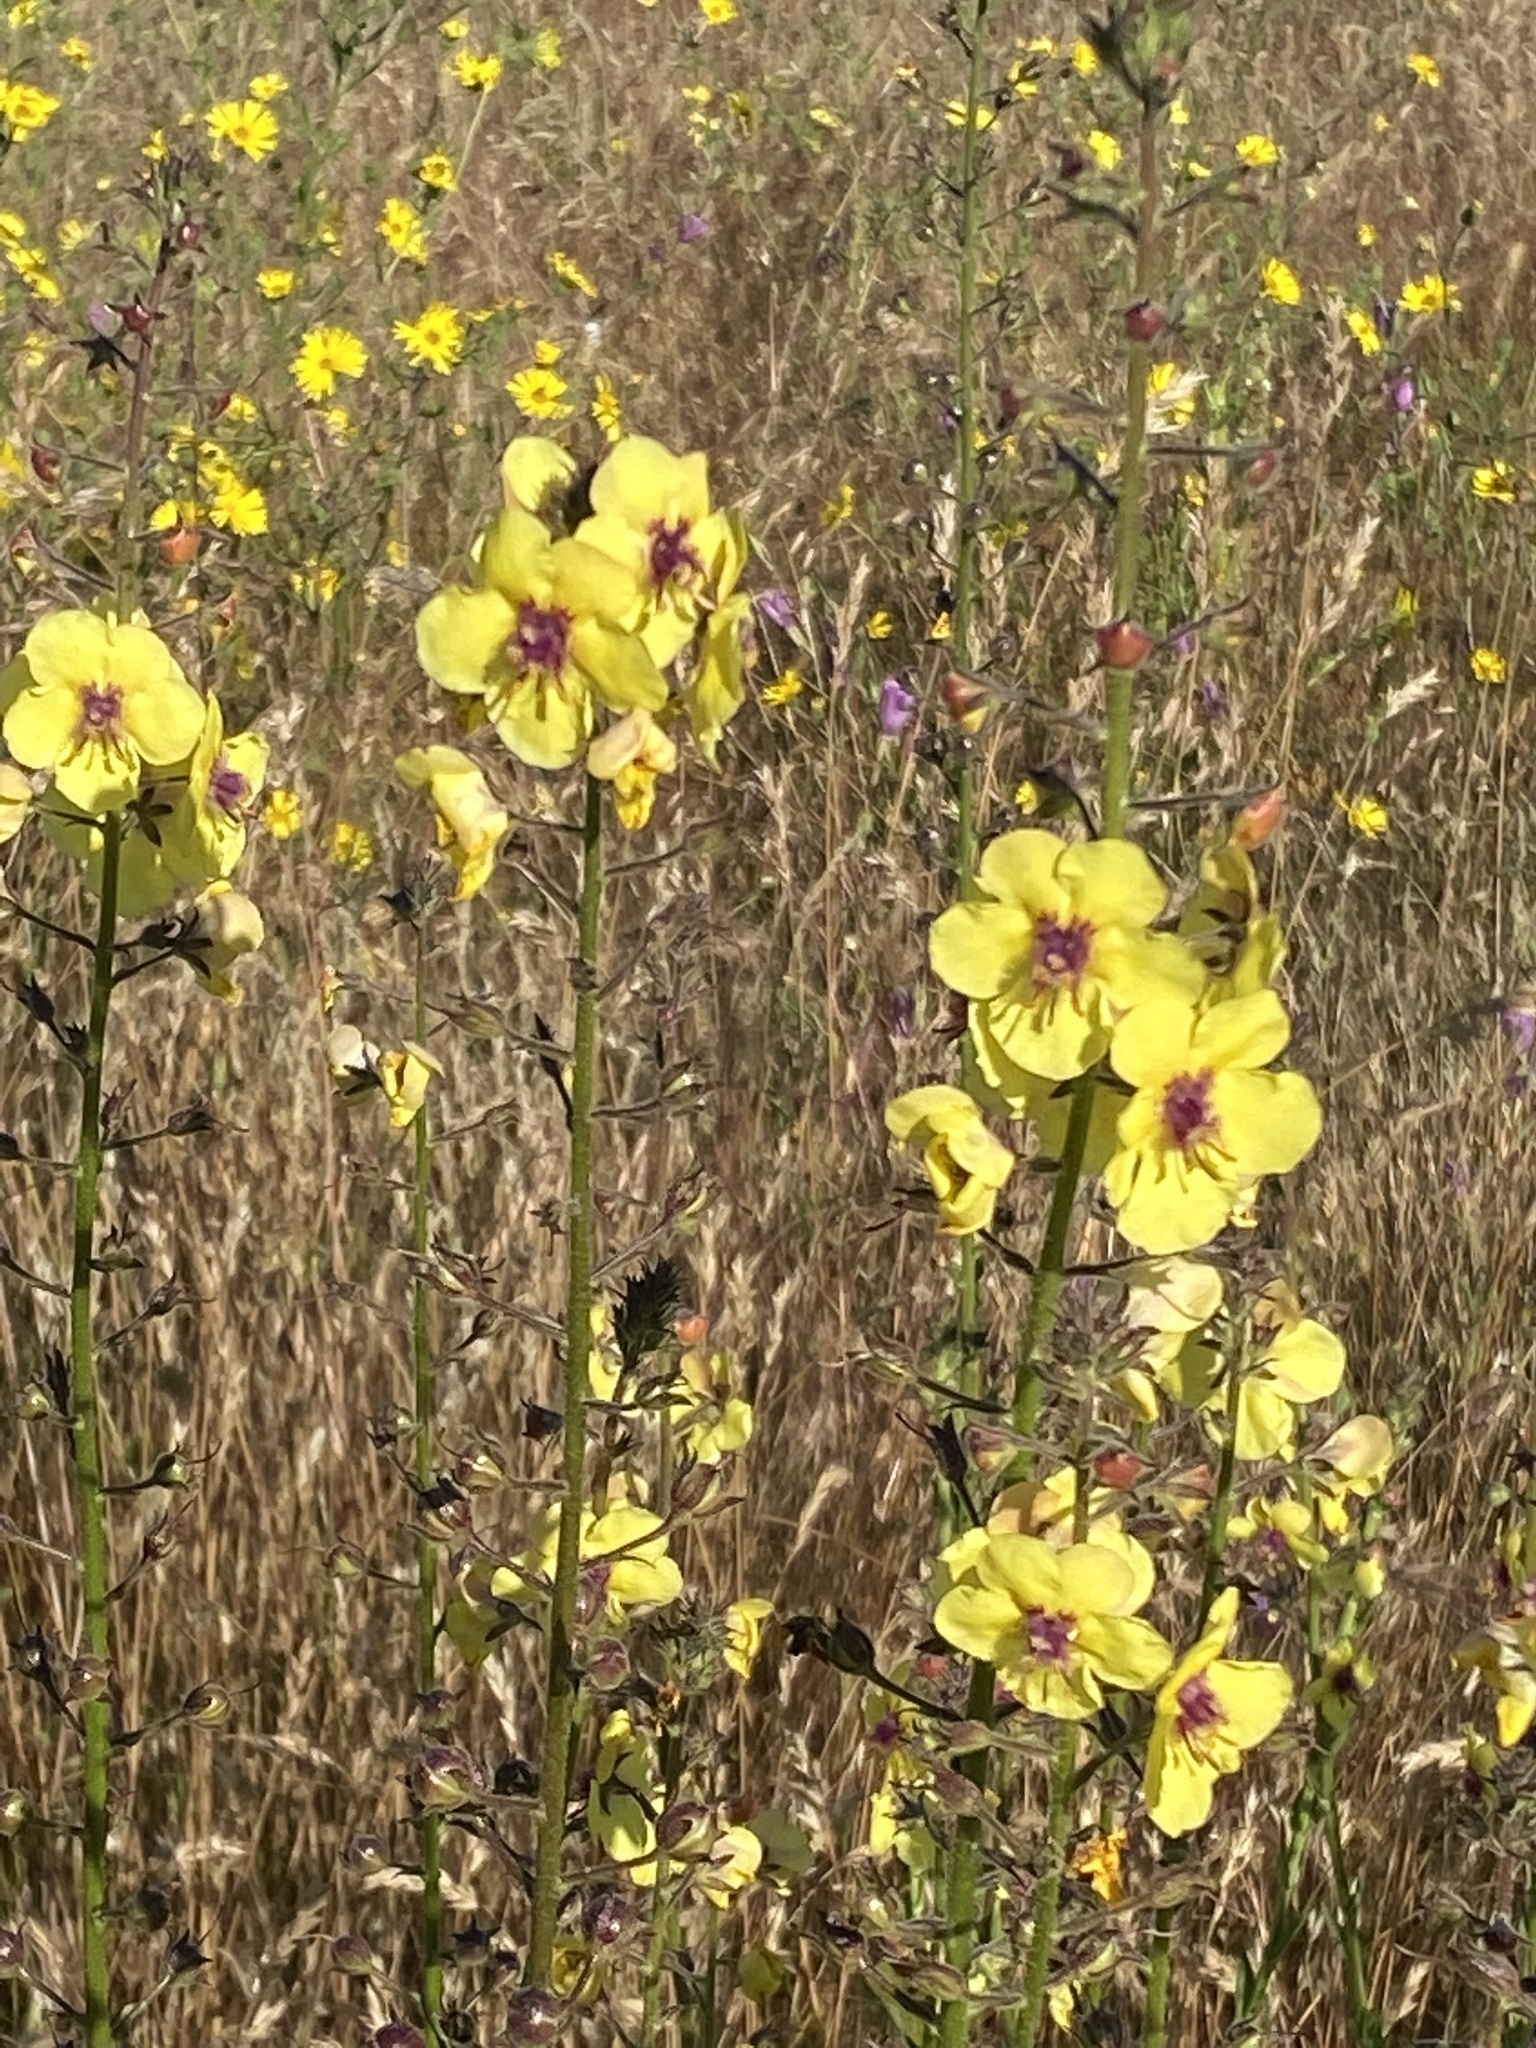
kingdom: Plantae
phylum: Tracheophyta
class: Magnoliopsida
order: Lamiales
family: Scrophulariaceae
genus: Verbascum
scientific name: Verbascum blattaria
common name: Moth mullein
